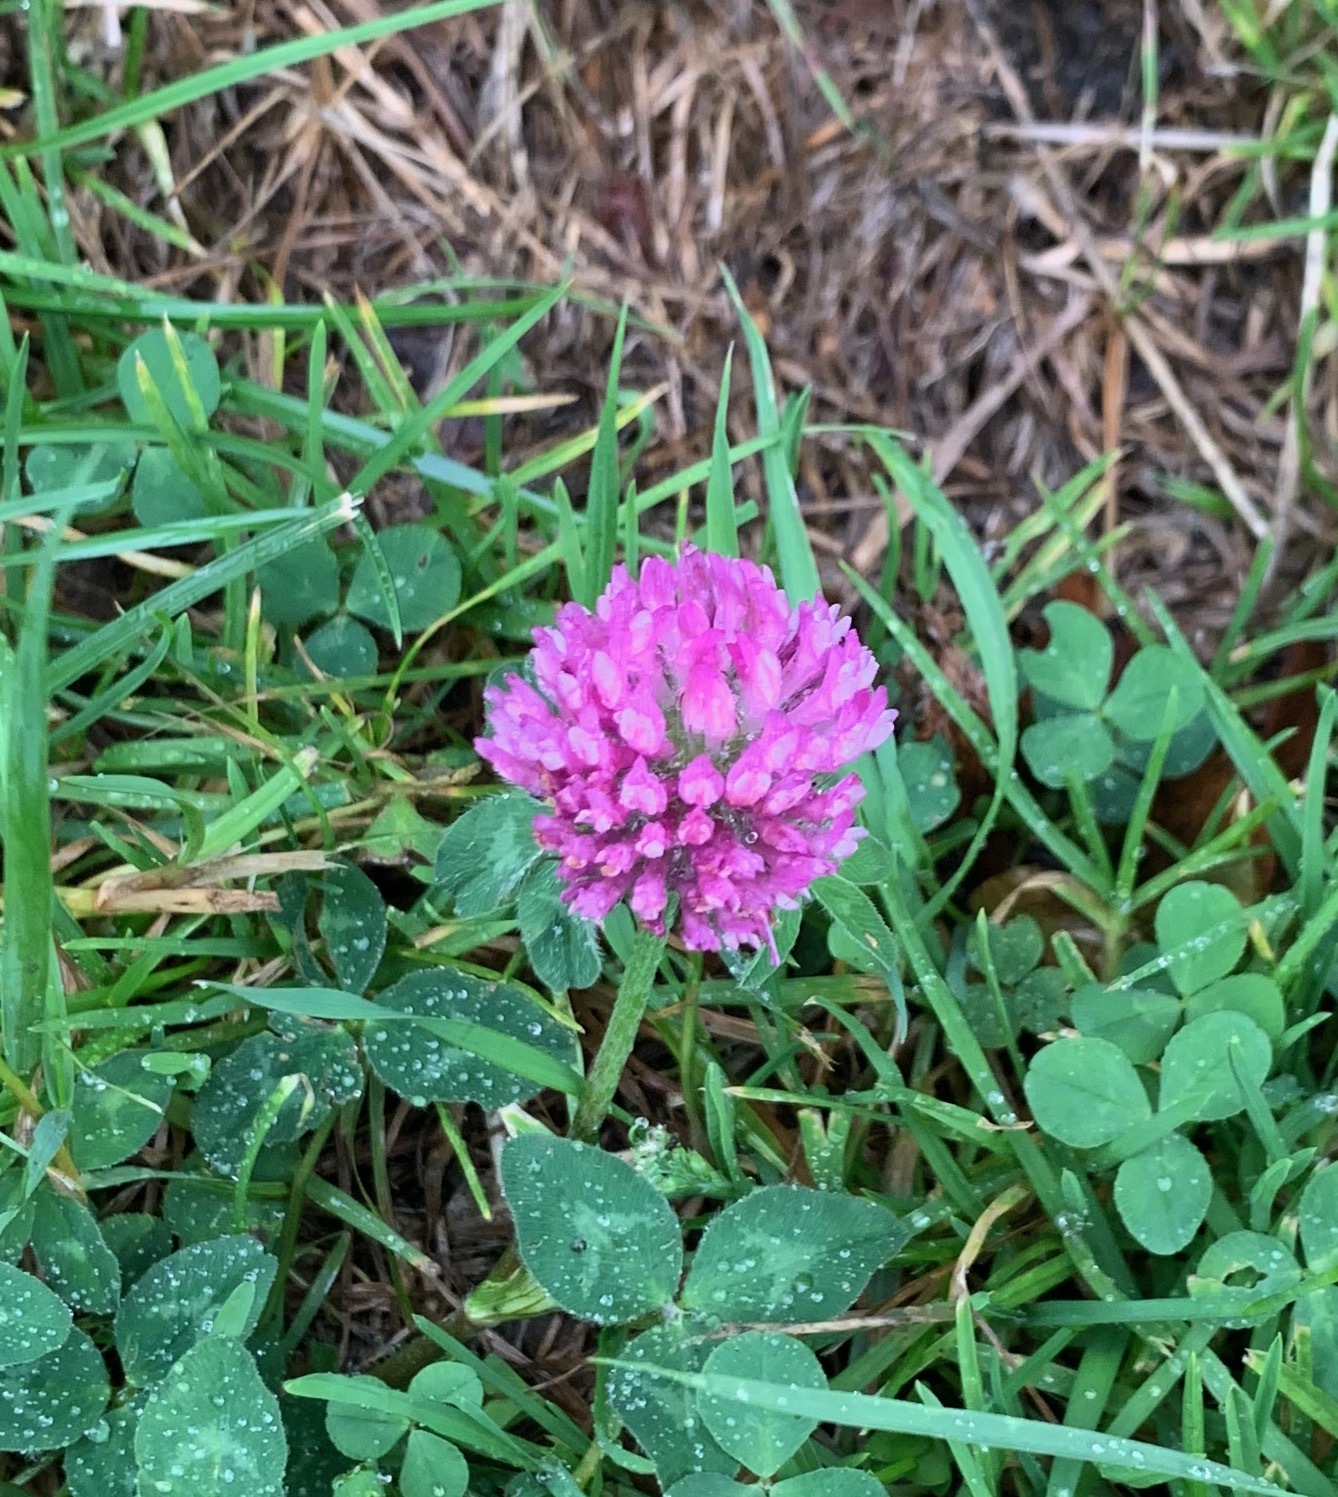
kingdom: Plantae
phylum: Tracheophyta
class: Magnoliopsida
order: Fabales
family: Fabaceae
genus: Trifolium
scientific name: Trifolium pratense
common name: Red clover
